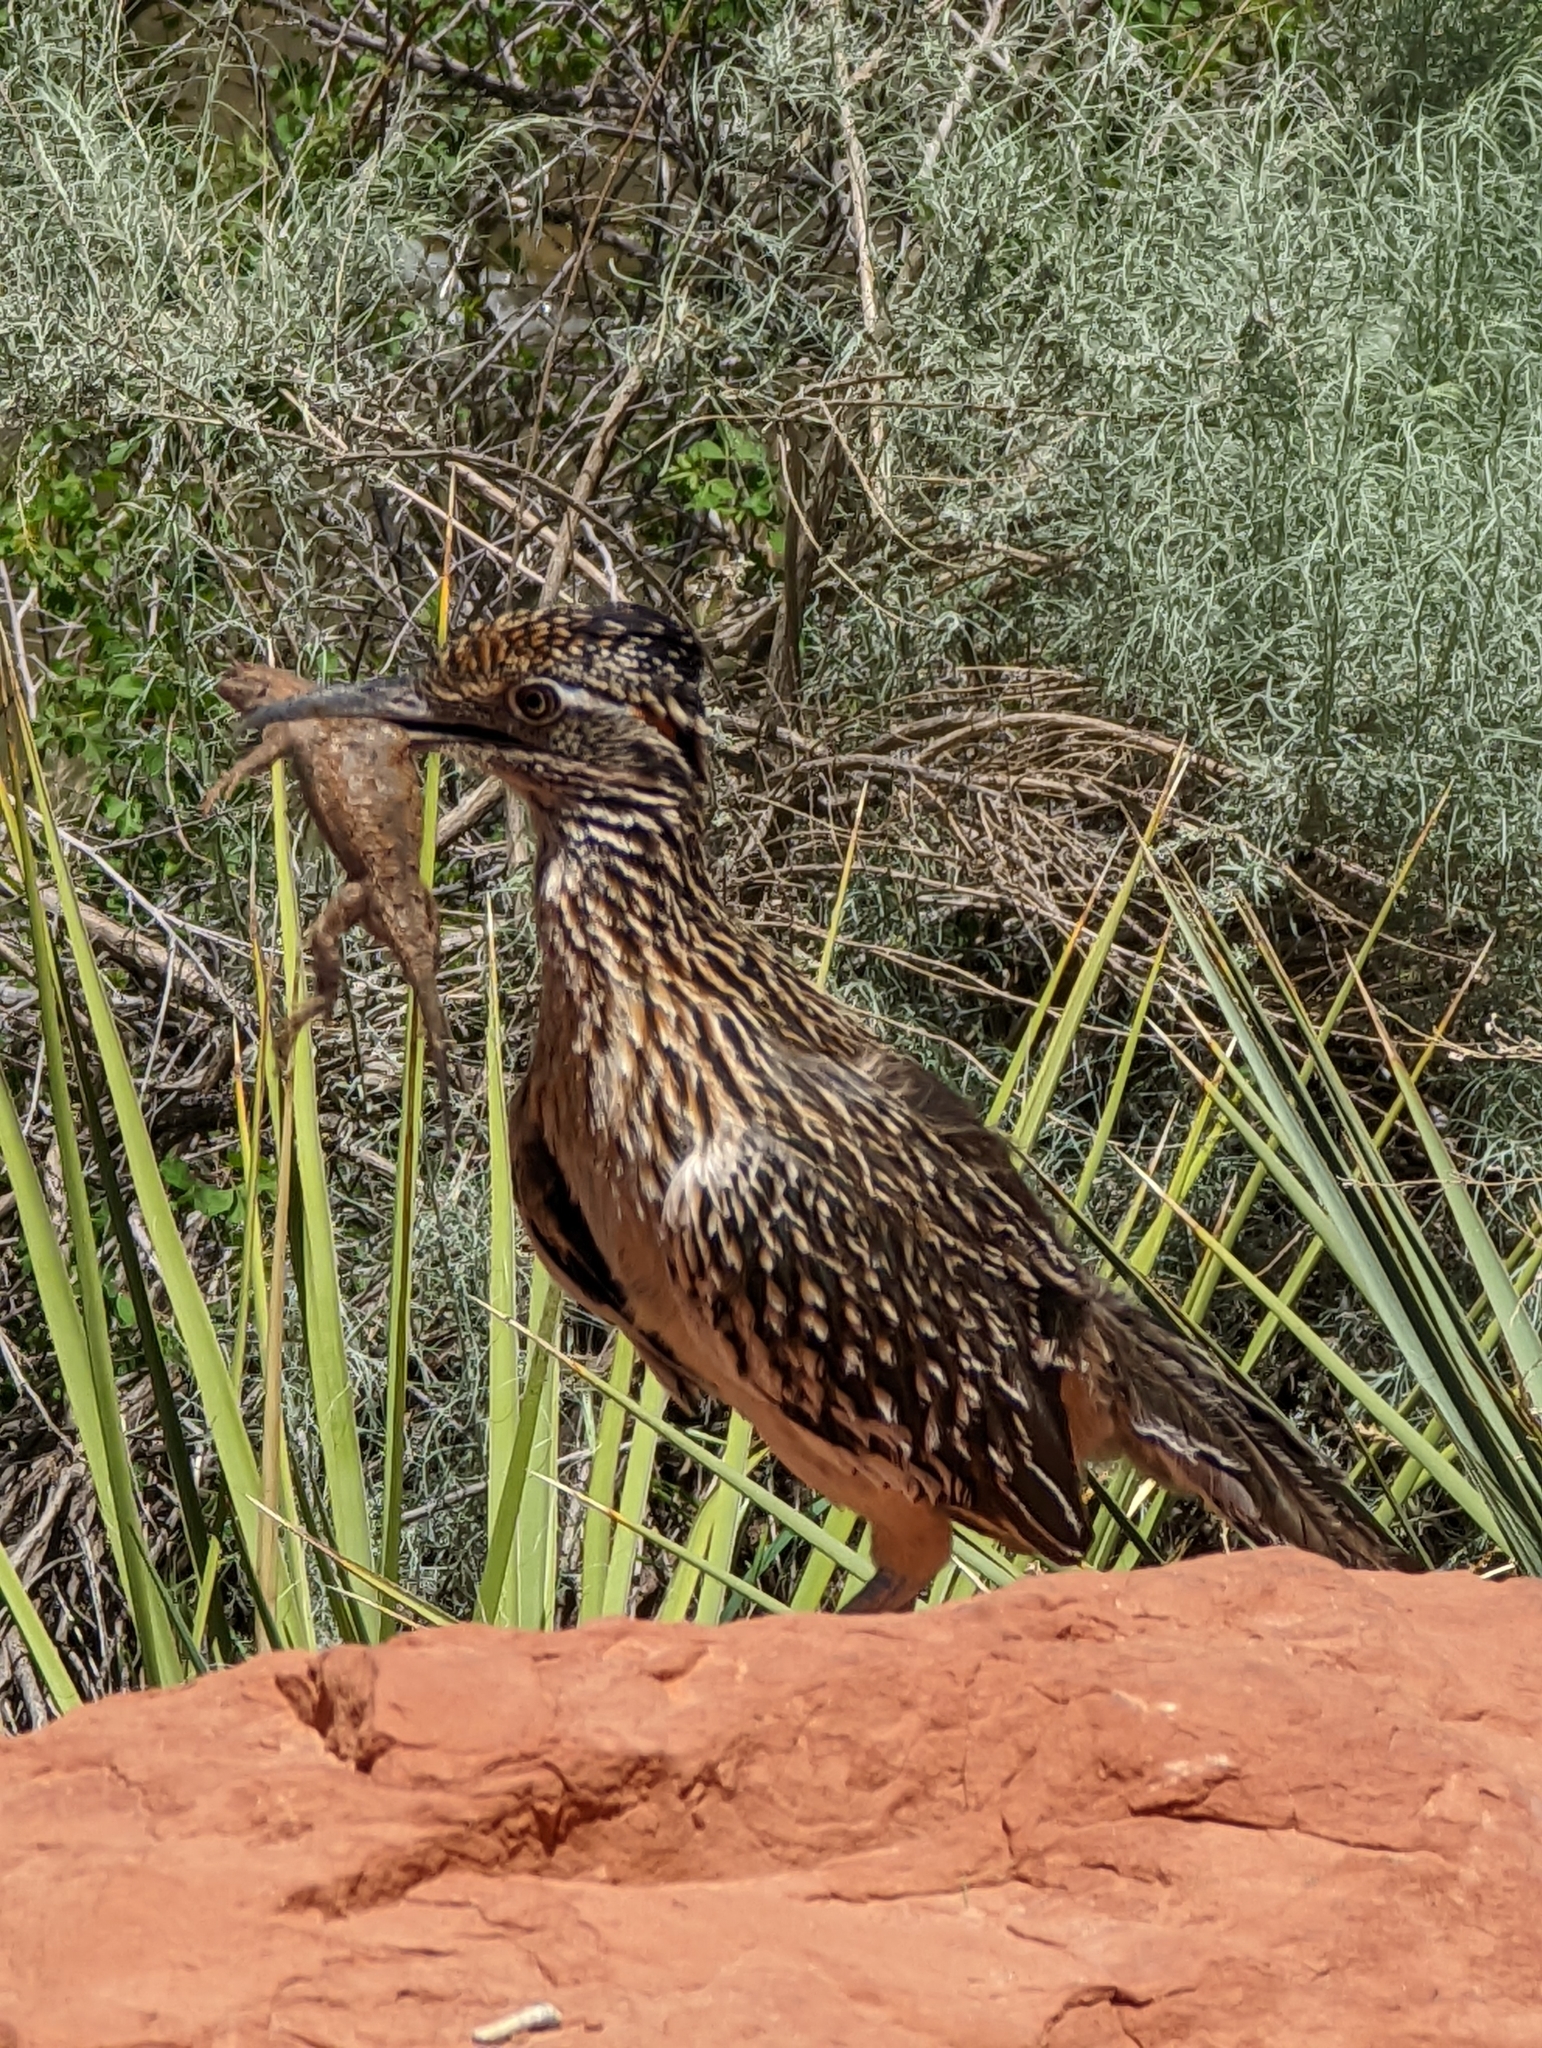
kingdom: Animalia
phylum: Chordata
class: Aves
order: Cuculiformes
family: Cuculidae
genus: Geococcyx
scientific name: Geococcyx californianus
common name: Greater roadrunner
